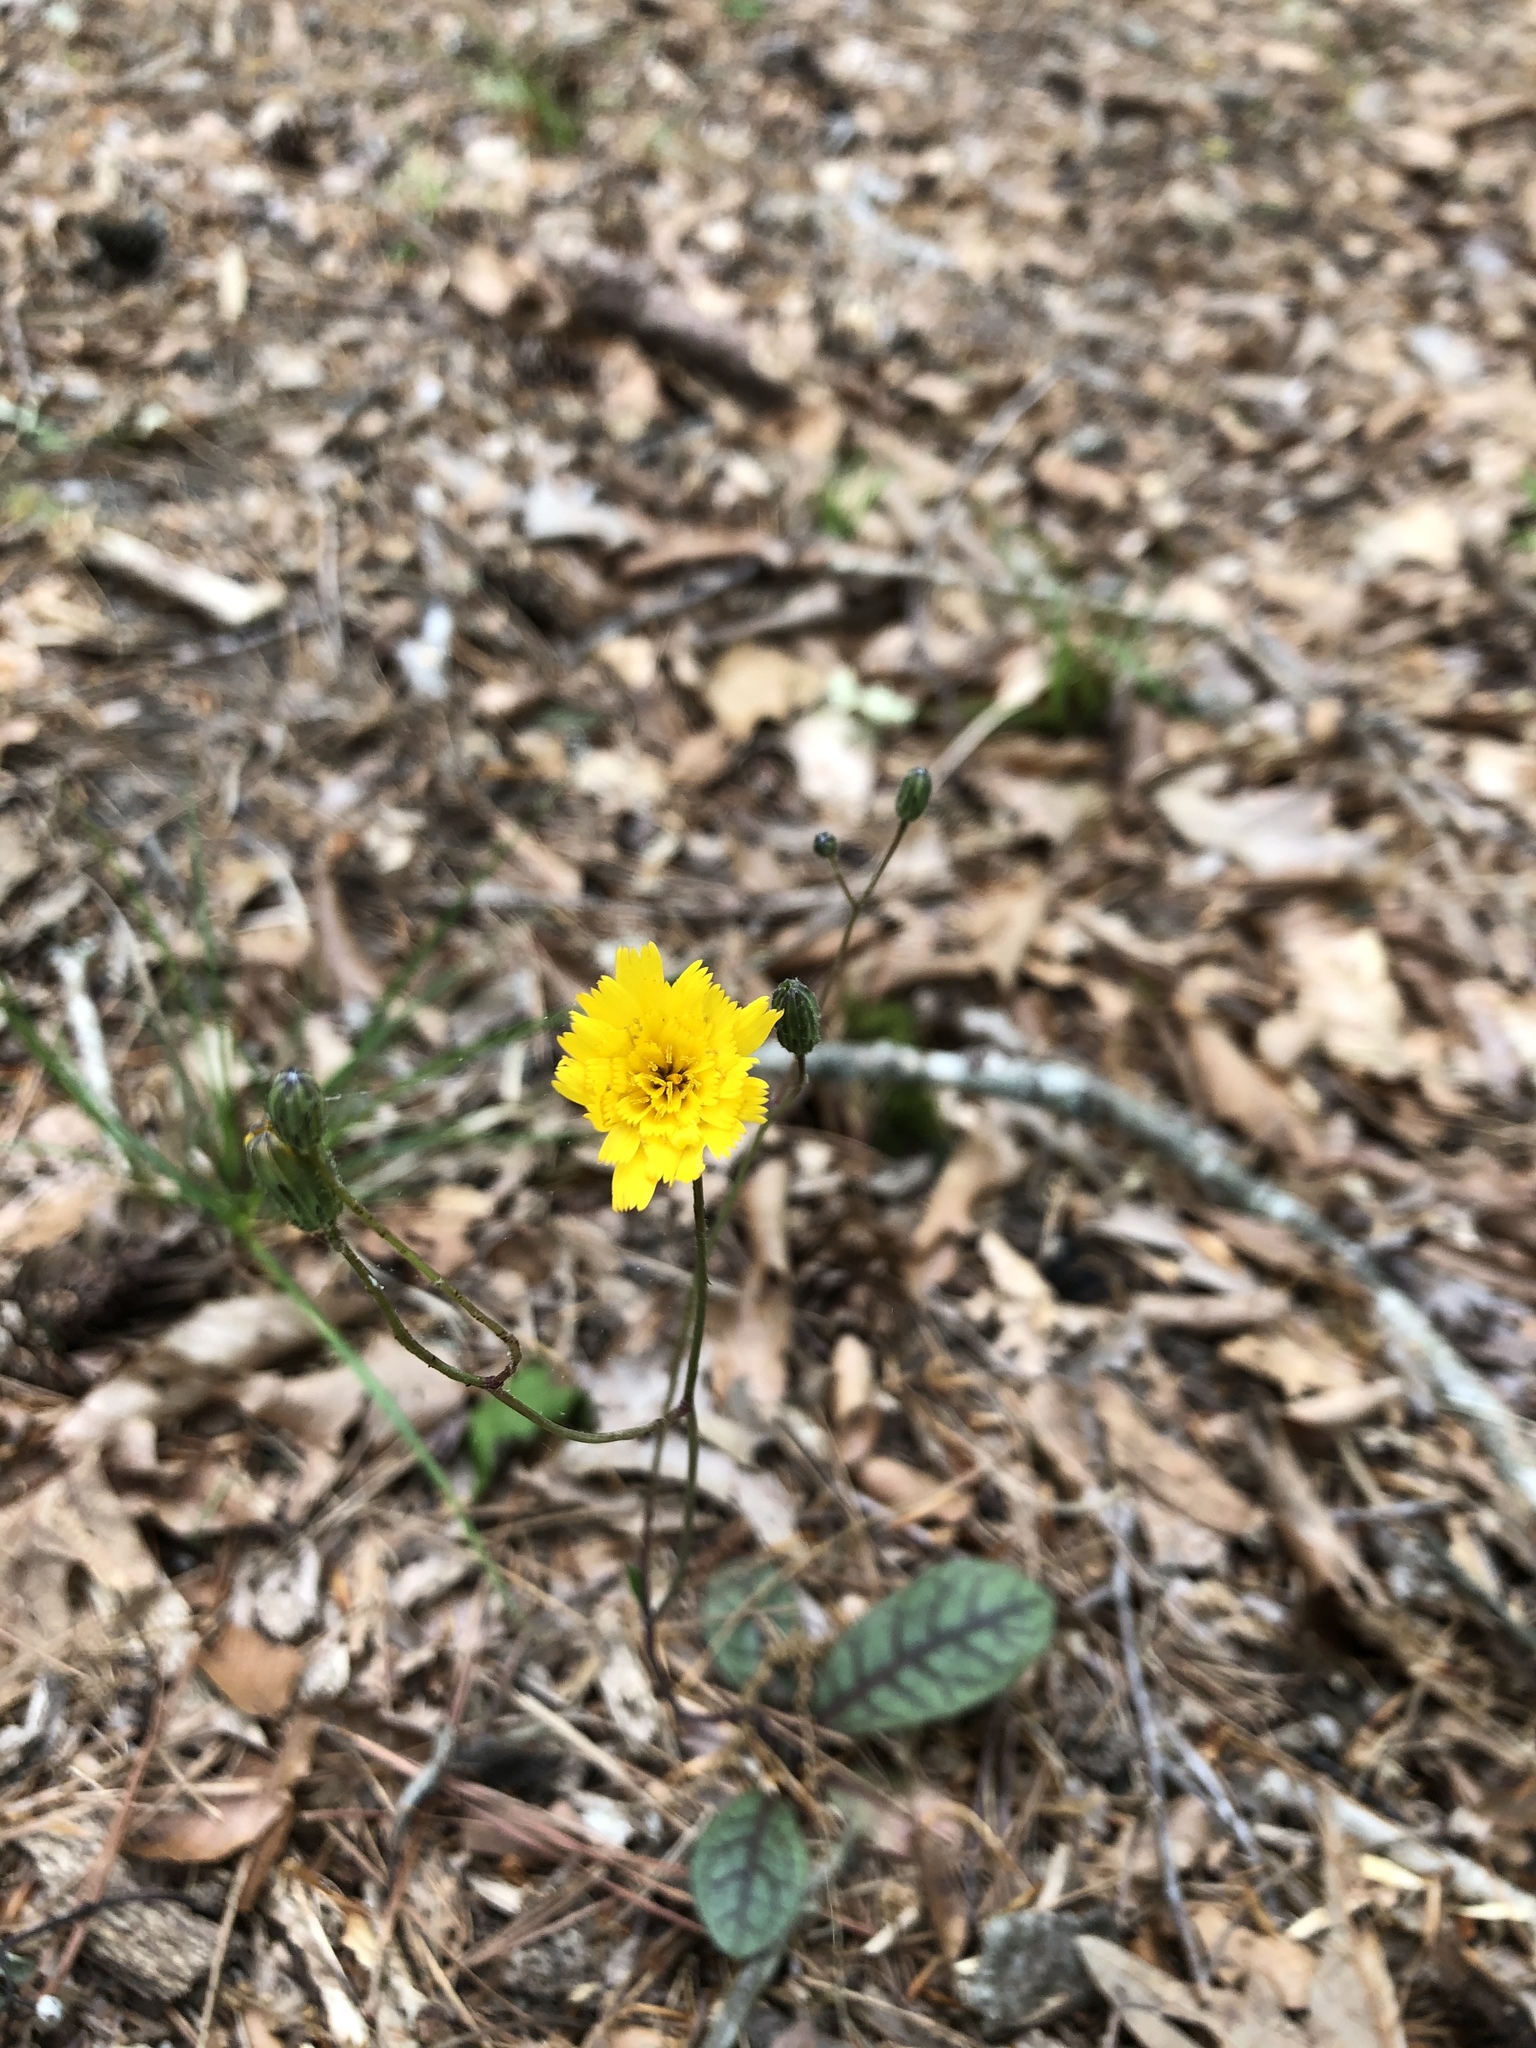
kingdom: Plantae
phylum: Tracheophyta
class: Magnoliopsida
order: Asterales
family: Asteraceae
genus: Hieracium
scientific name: Hieracium venosum
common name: Rattlesnake hawkweed
